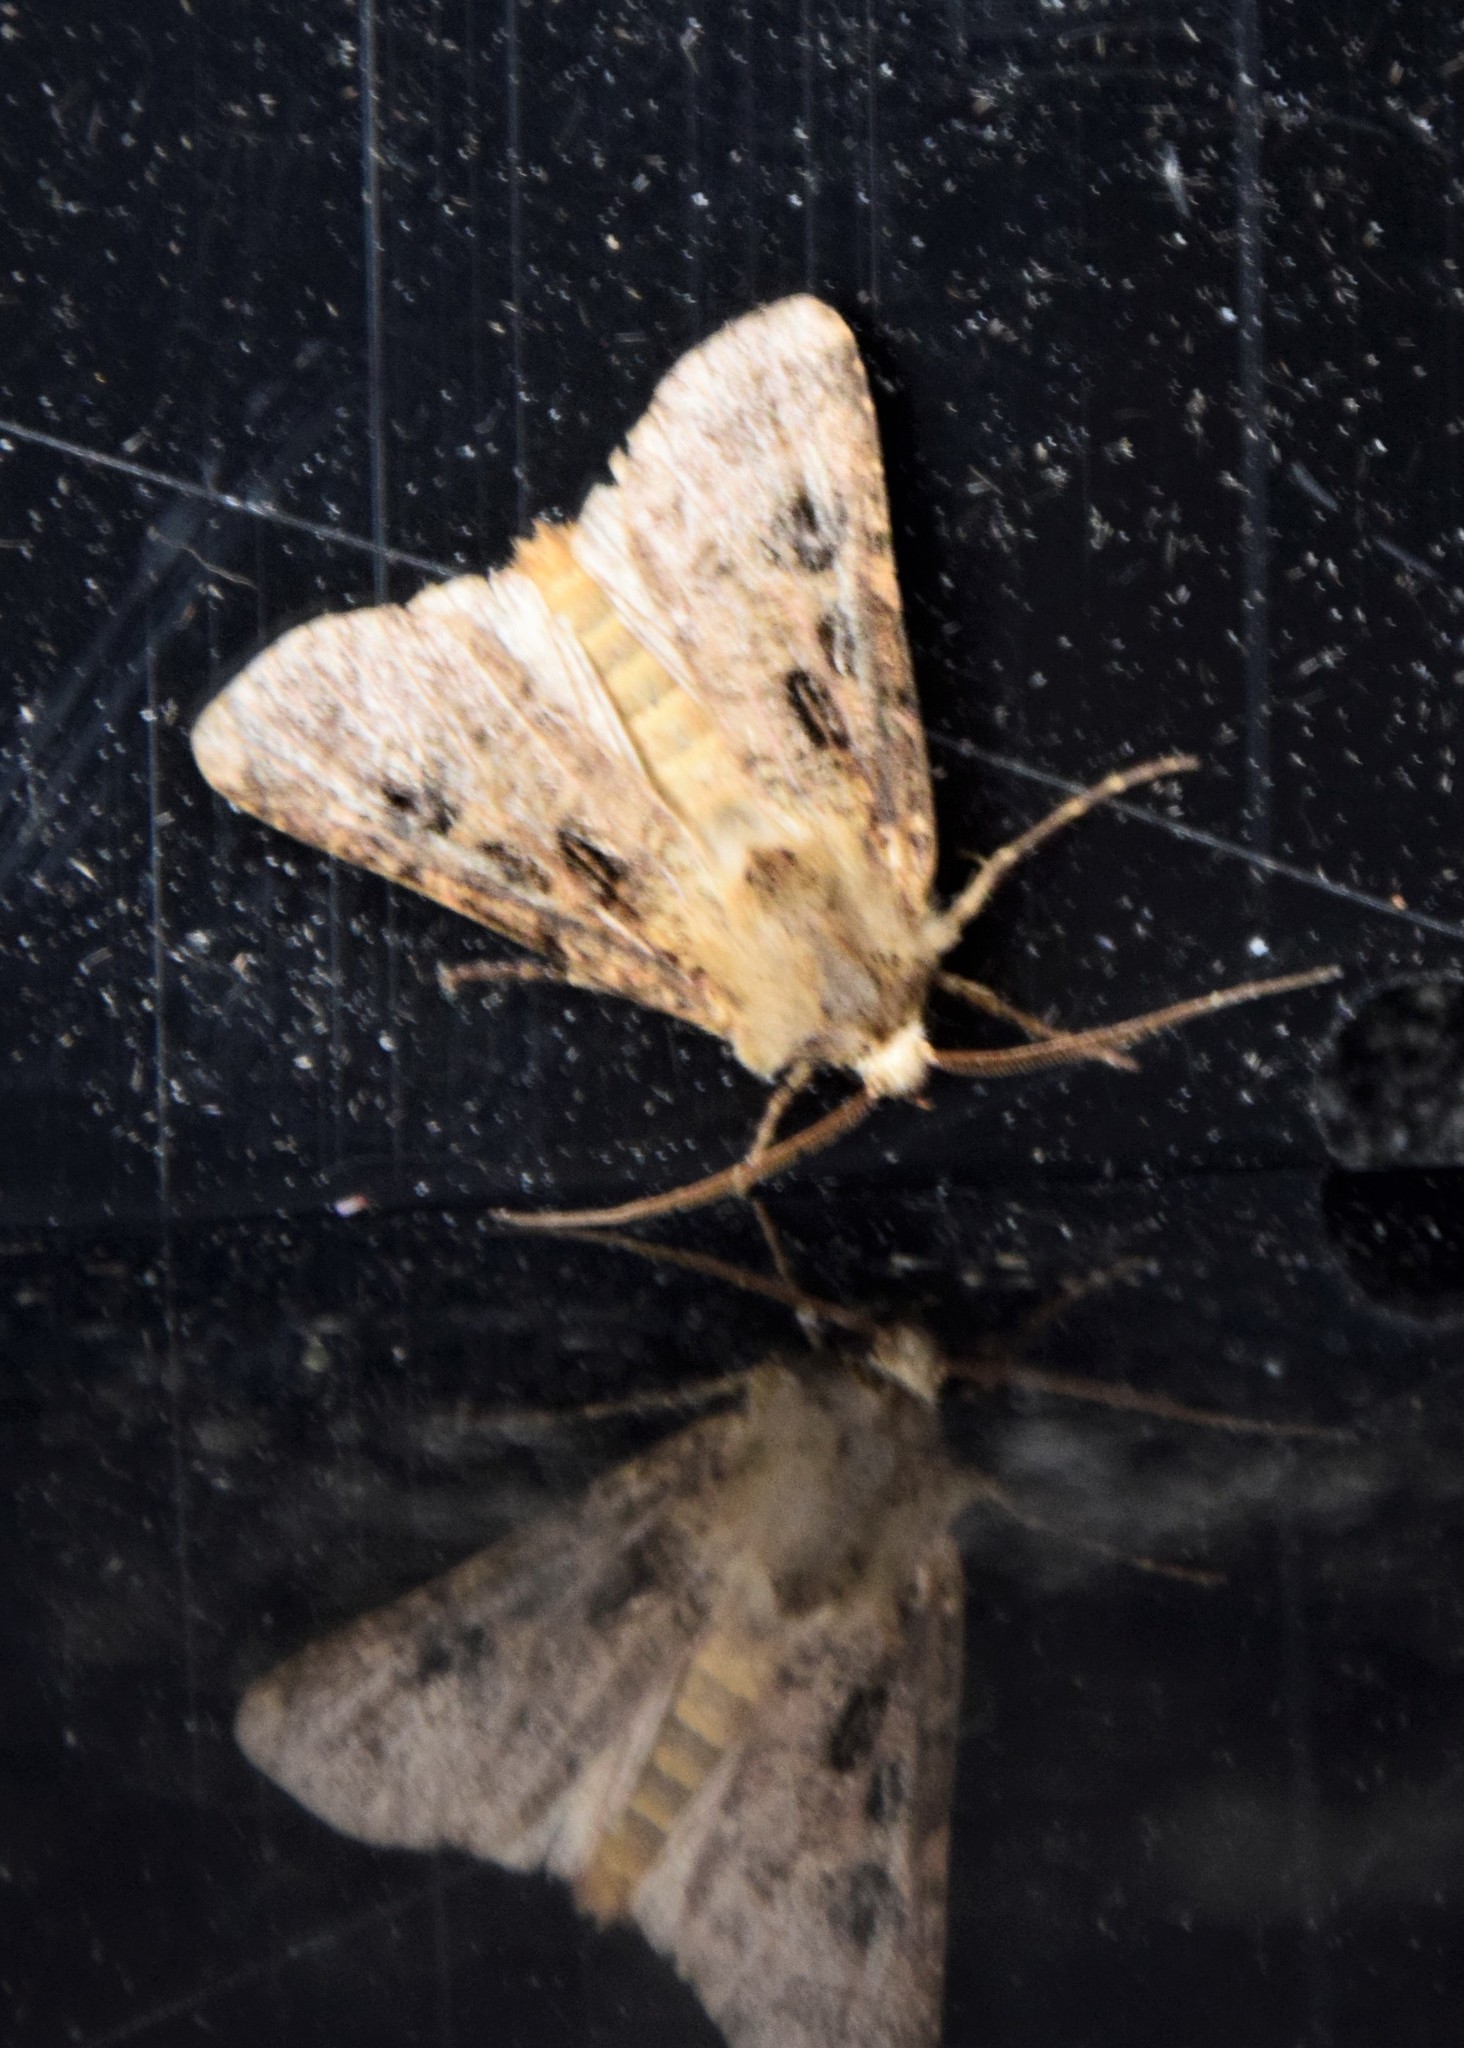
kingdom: Animalia
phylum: Arthropoda
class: Insecta
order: Lepidoptera
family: Noctuidae
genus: Agrotis
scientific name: Agrotis clavis
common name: Heart and club
